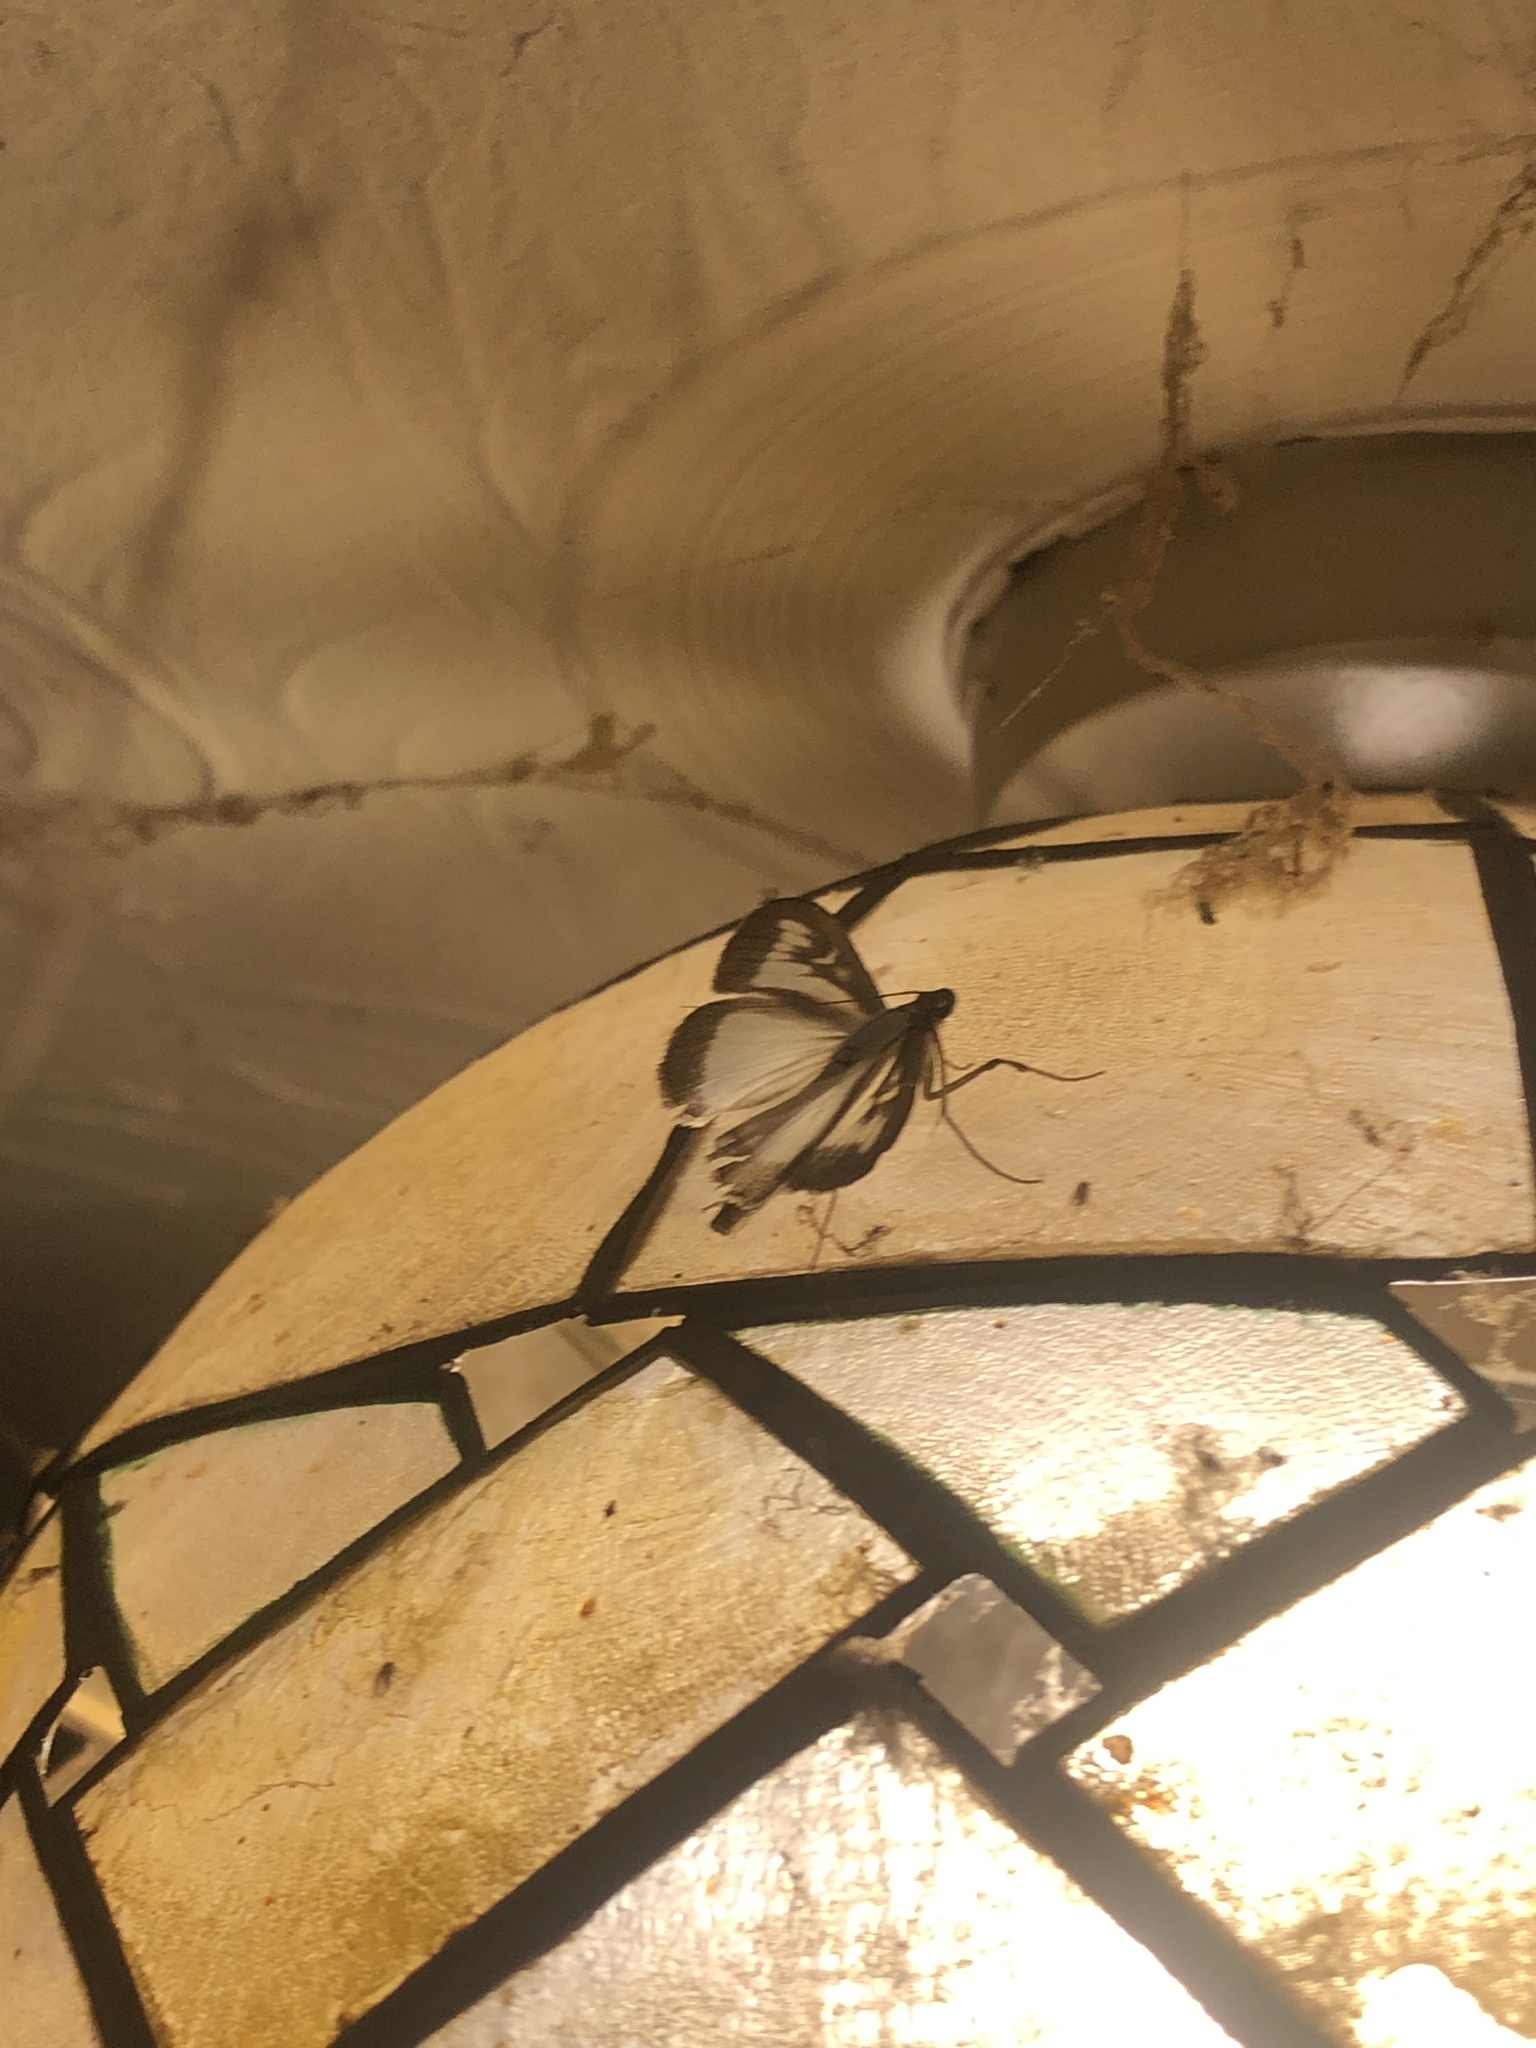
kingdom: Animalia
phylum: Arthropoda
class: Insecta
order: Lepidoptera
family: Crambidae
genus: Cydalima
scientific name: Cydalima perspectalis
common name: Box tree moth
